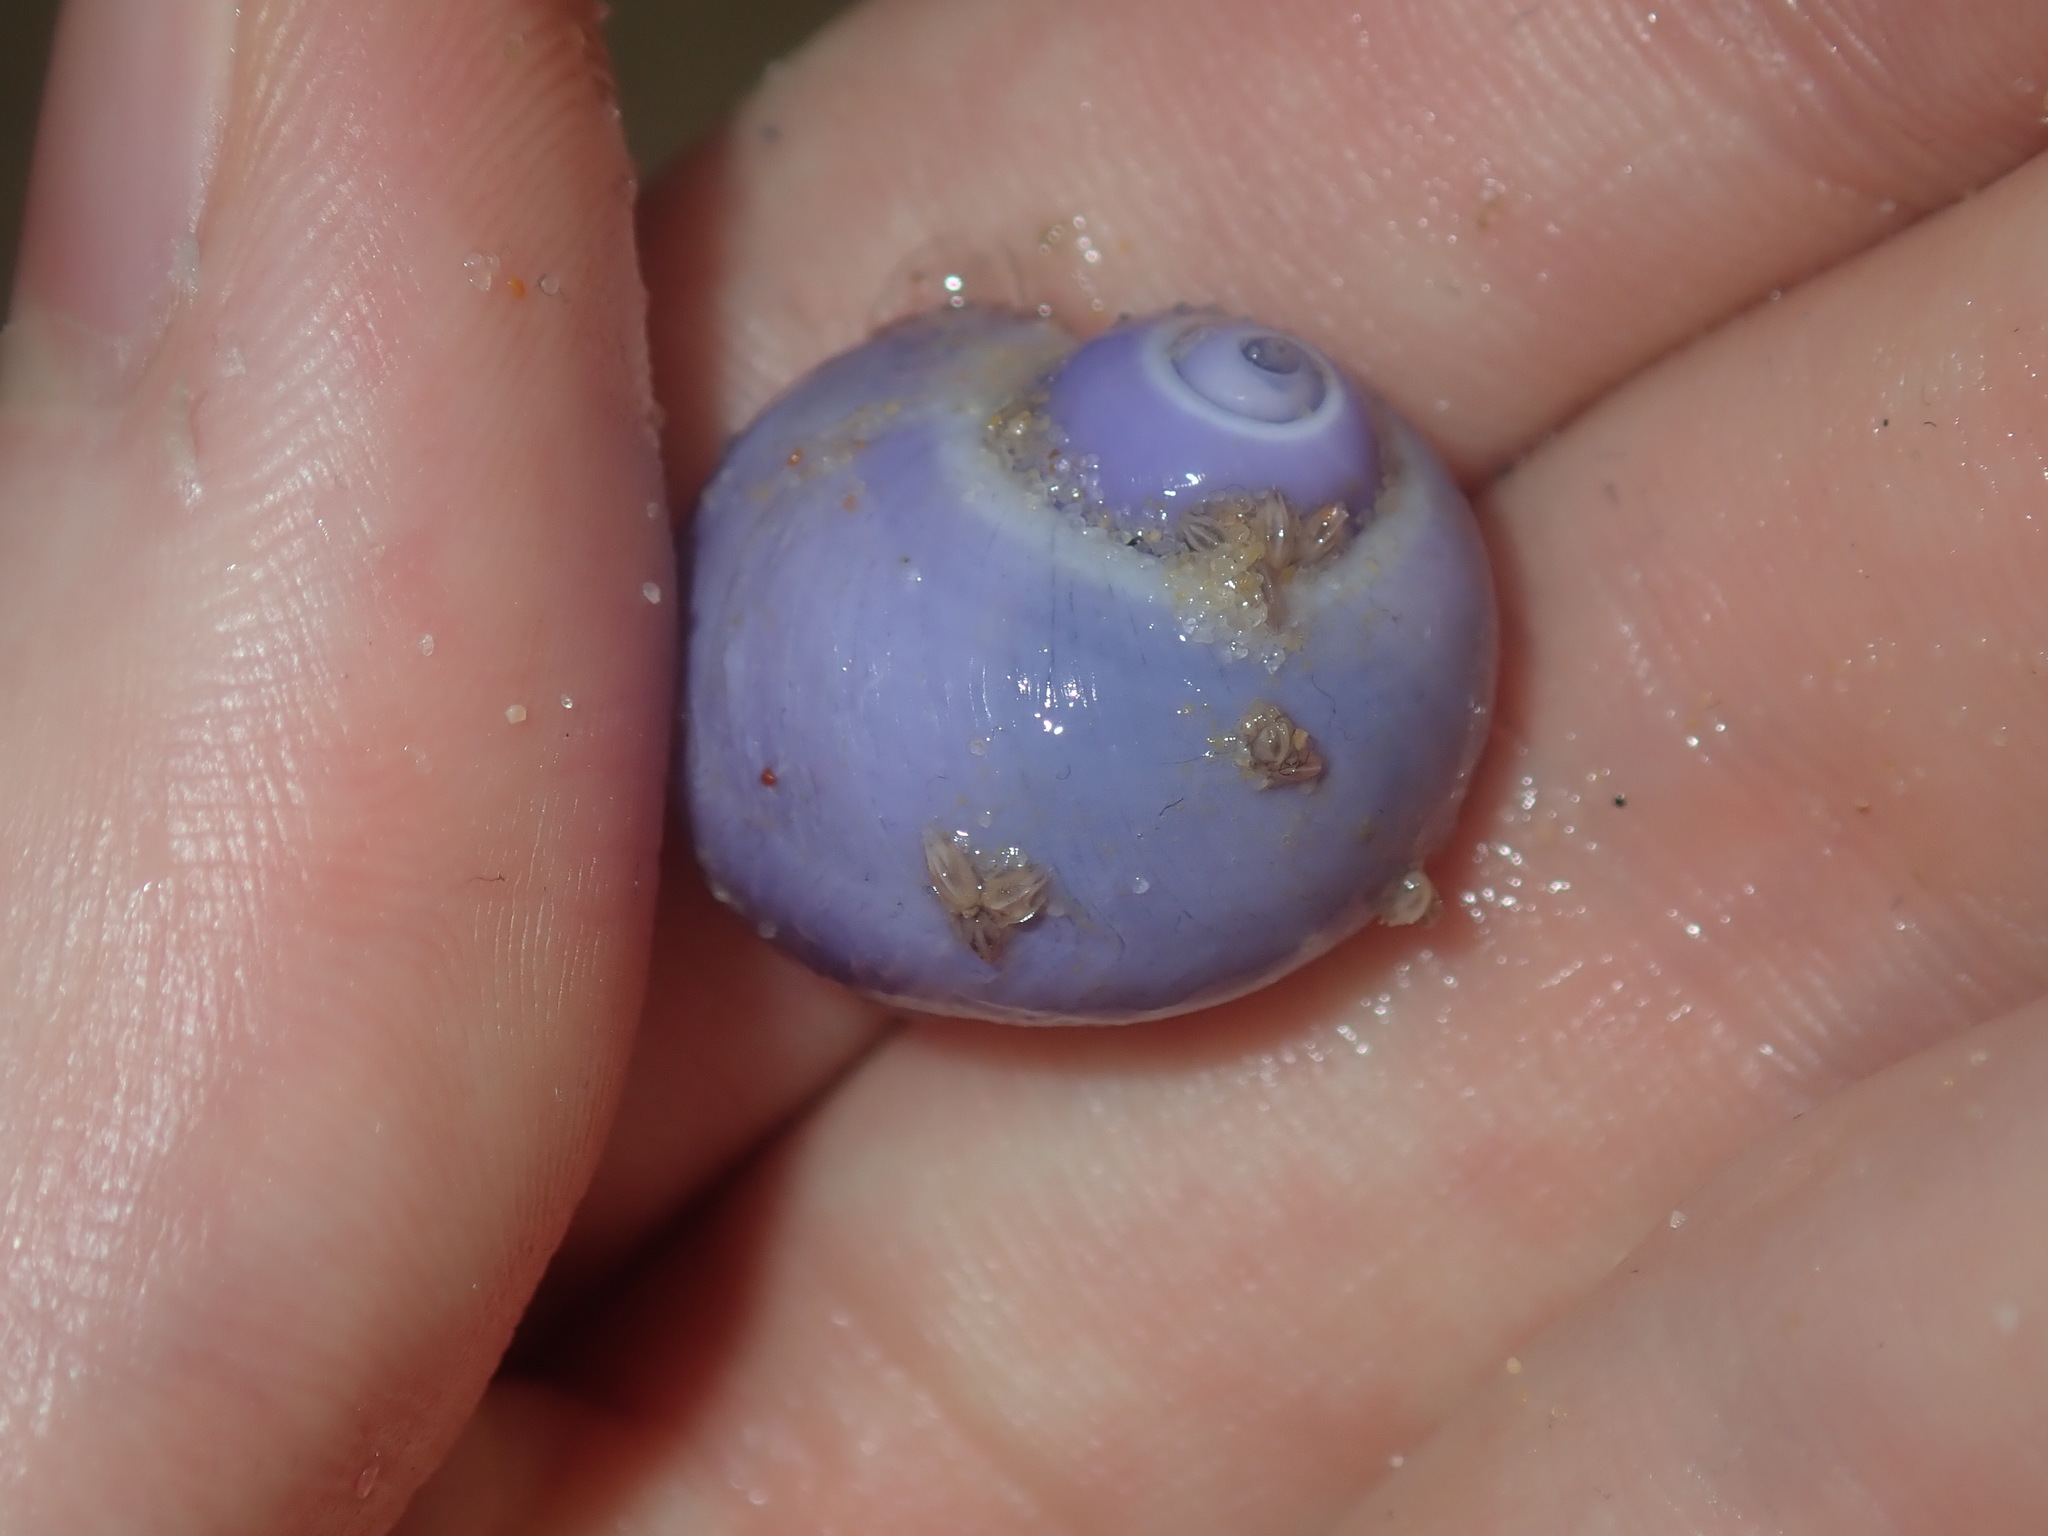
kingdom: Animalia
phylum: Mollusca
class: Gastropoda
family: Epitoniidae
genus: Janthina
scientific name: Janthina globosa
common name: Elongate janthina
